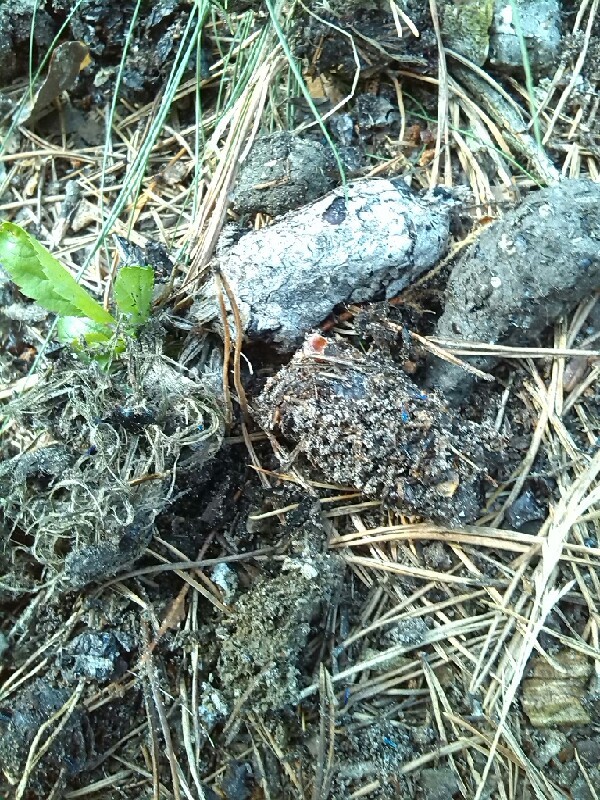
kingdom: Animalia
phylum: Chordata
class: Mammalia
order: Carnivora
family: Canidae
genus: Canis
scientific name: Canis lupus
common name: Gray wolf
